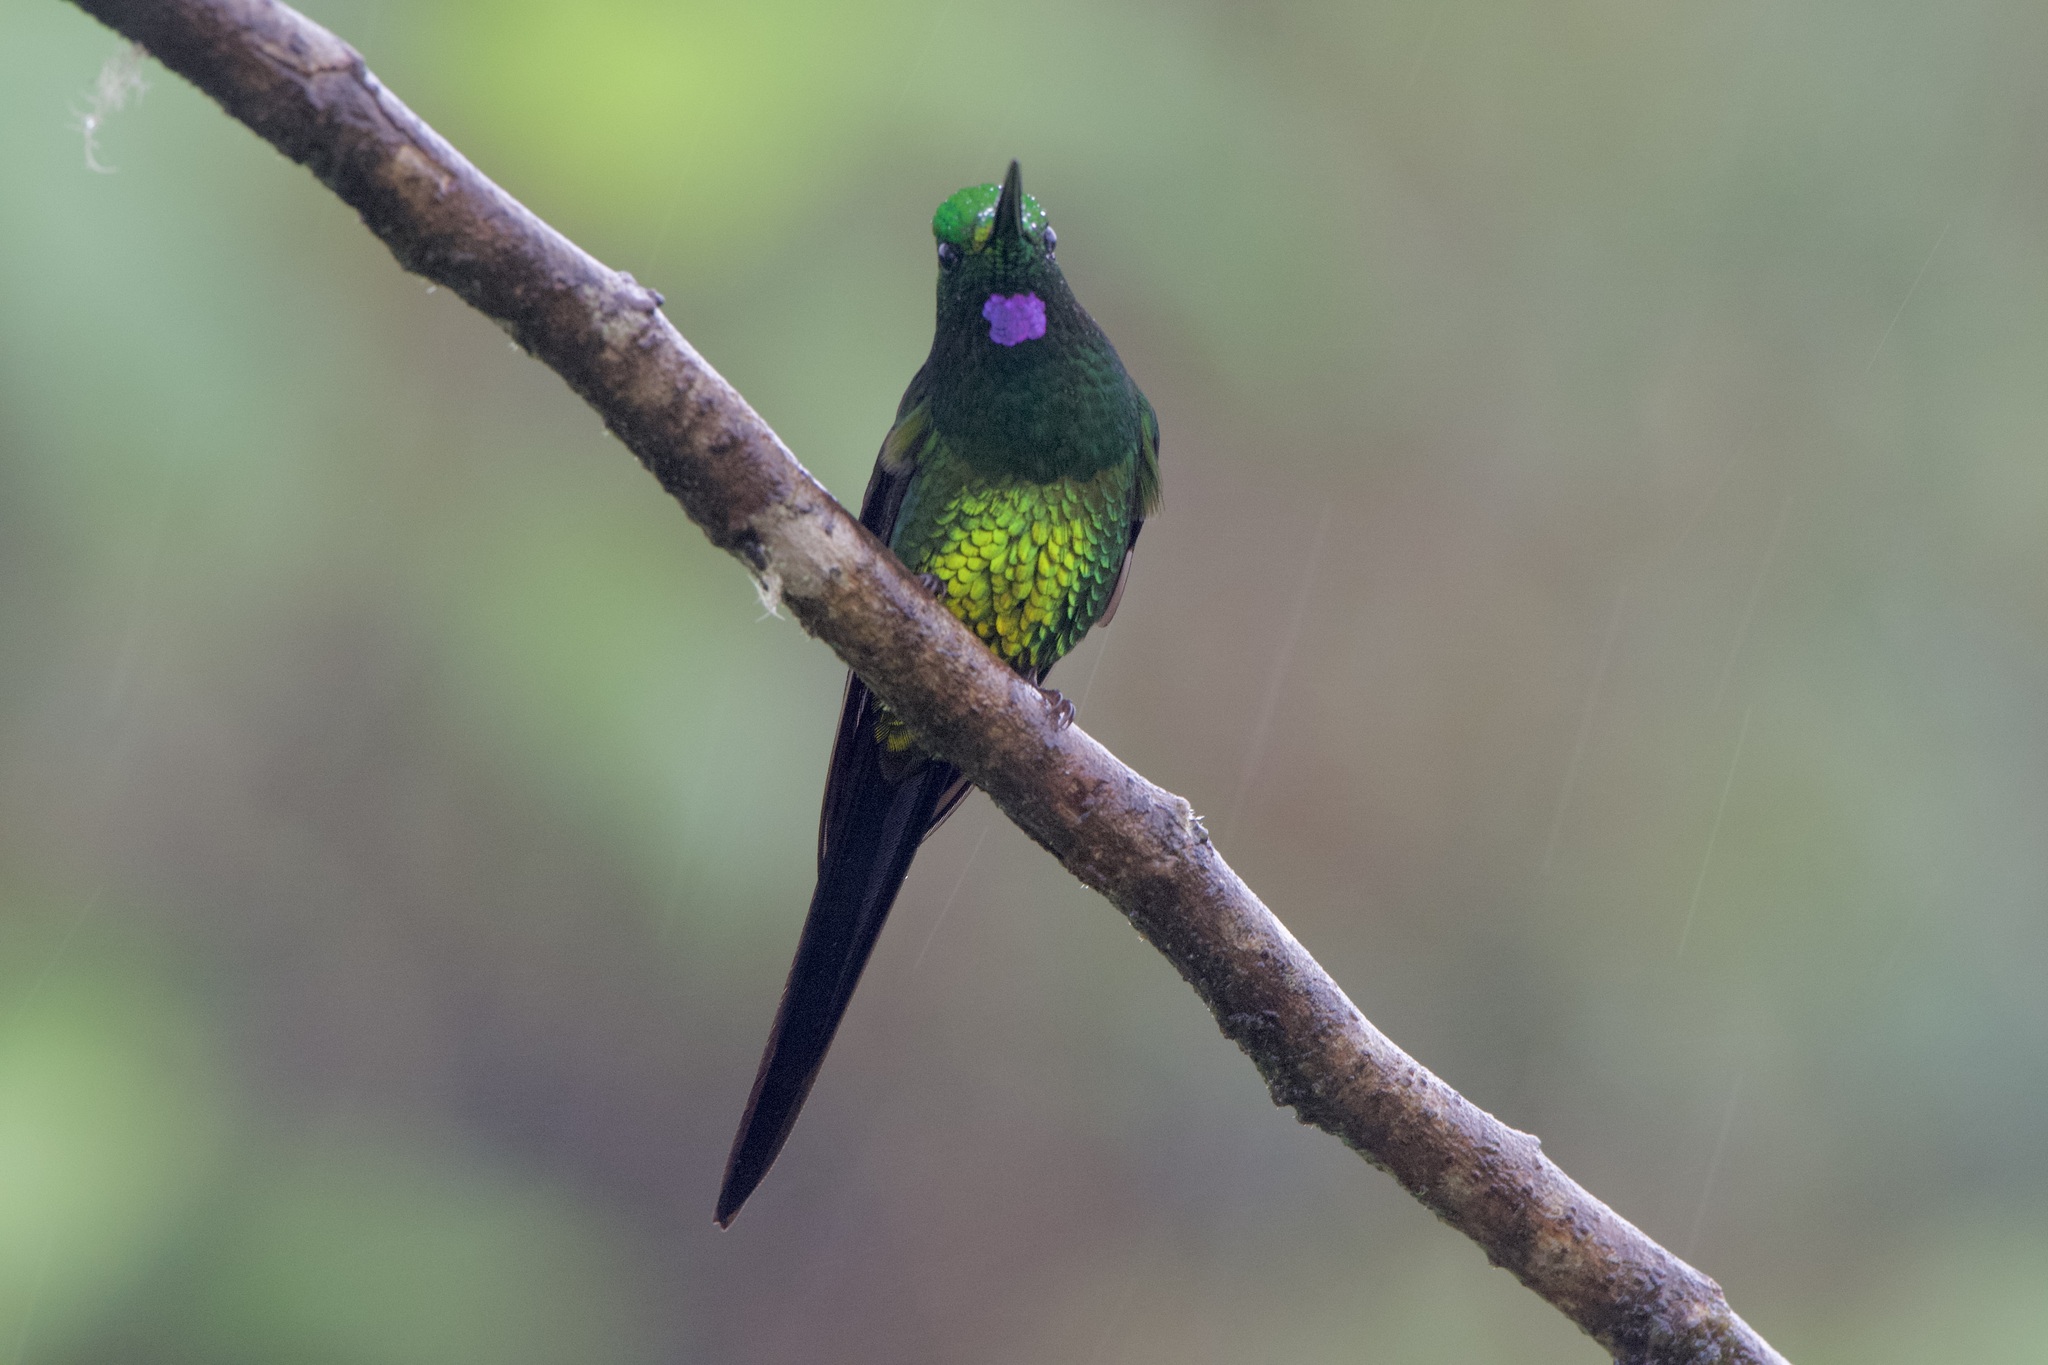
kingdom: Animalia
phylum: Chordata
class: Aves
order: Apodiformes
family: Trochilidae
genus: Heliodoxa
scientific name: Heliodoxa imperatrix
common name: Empress brilliant
